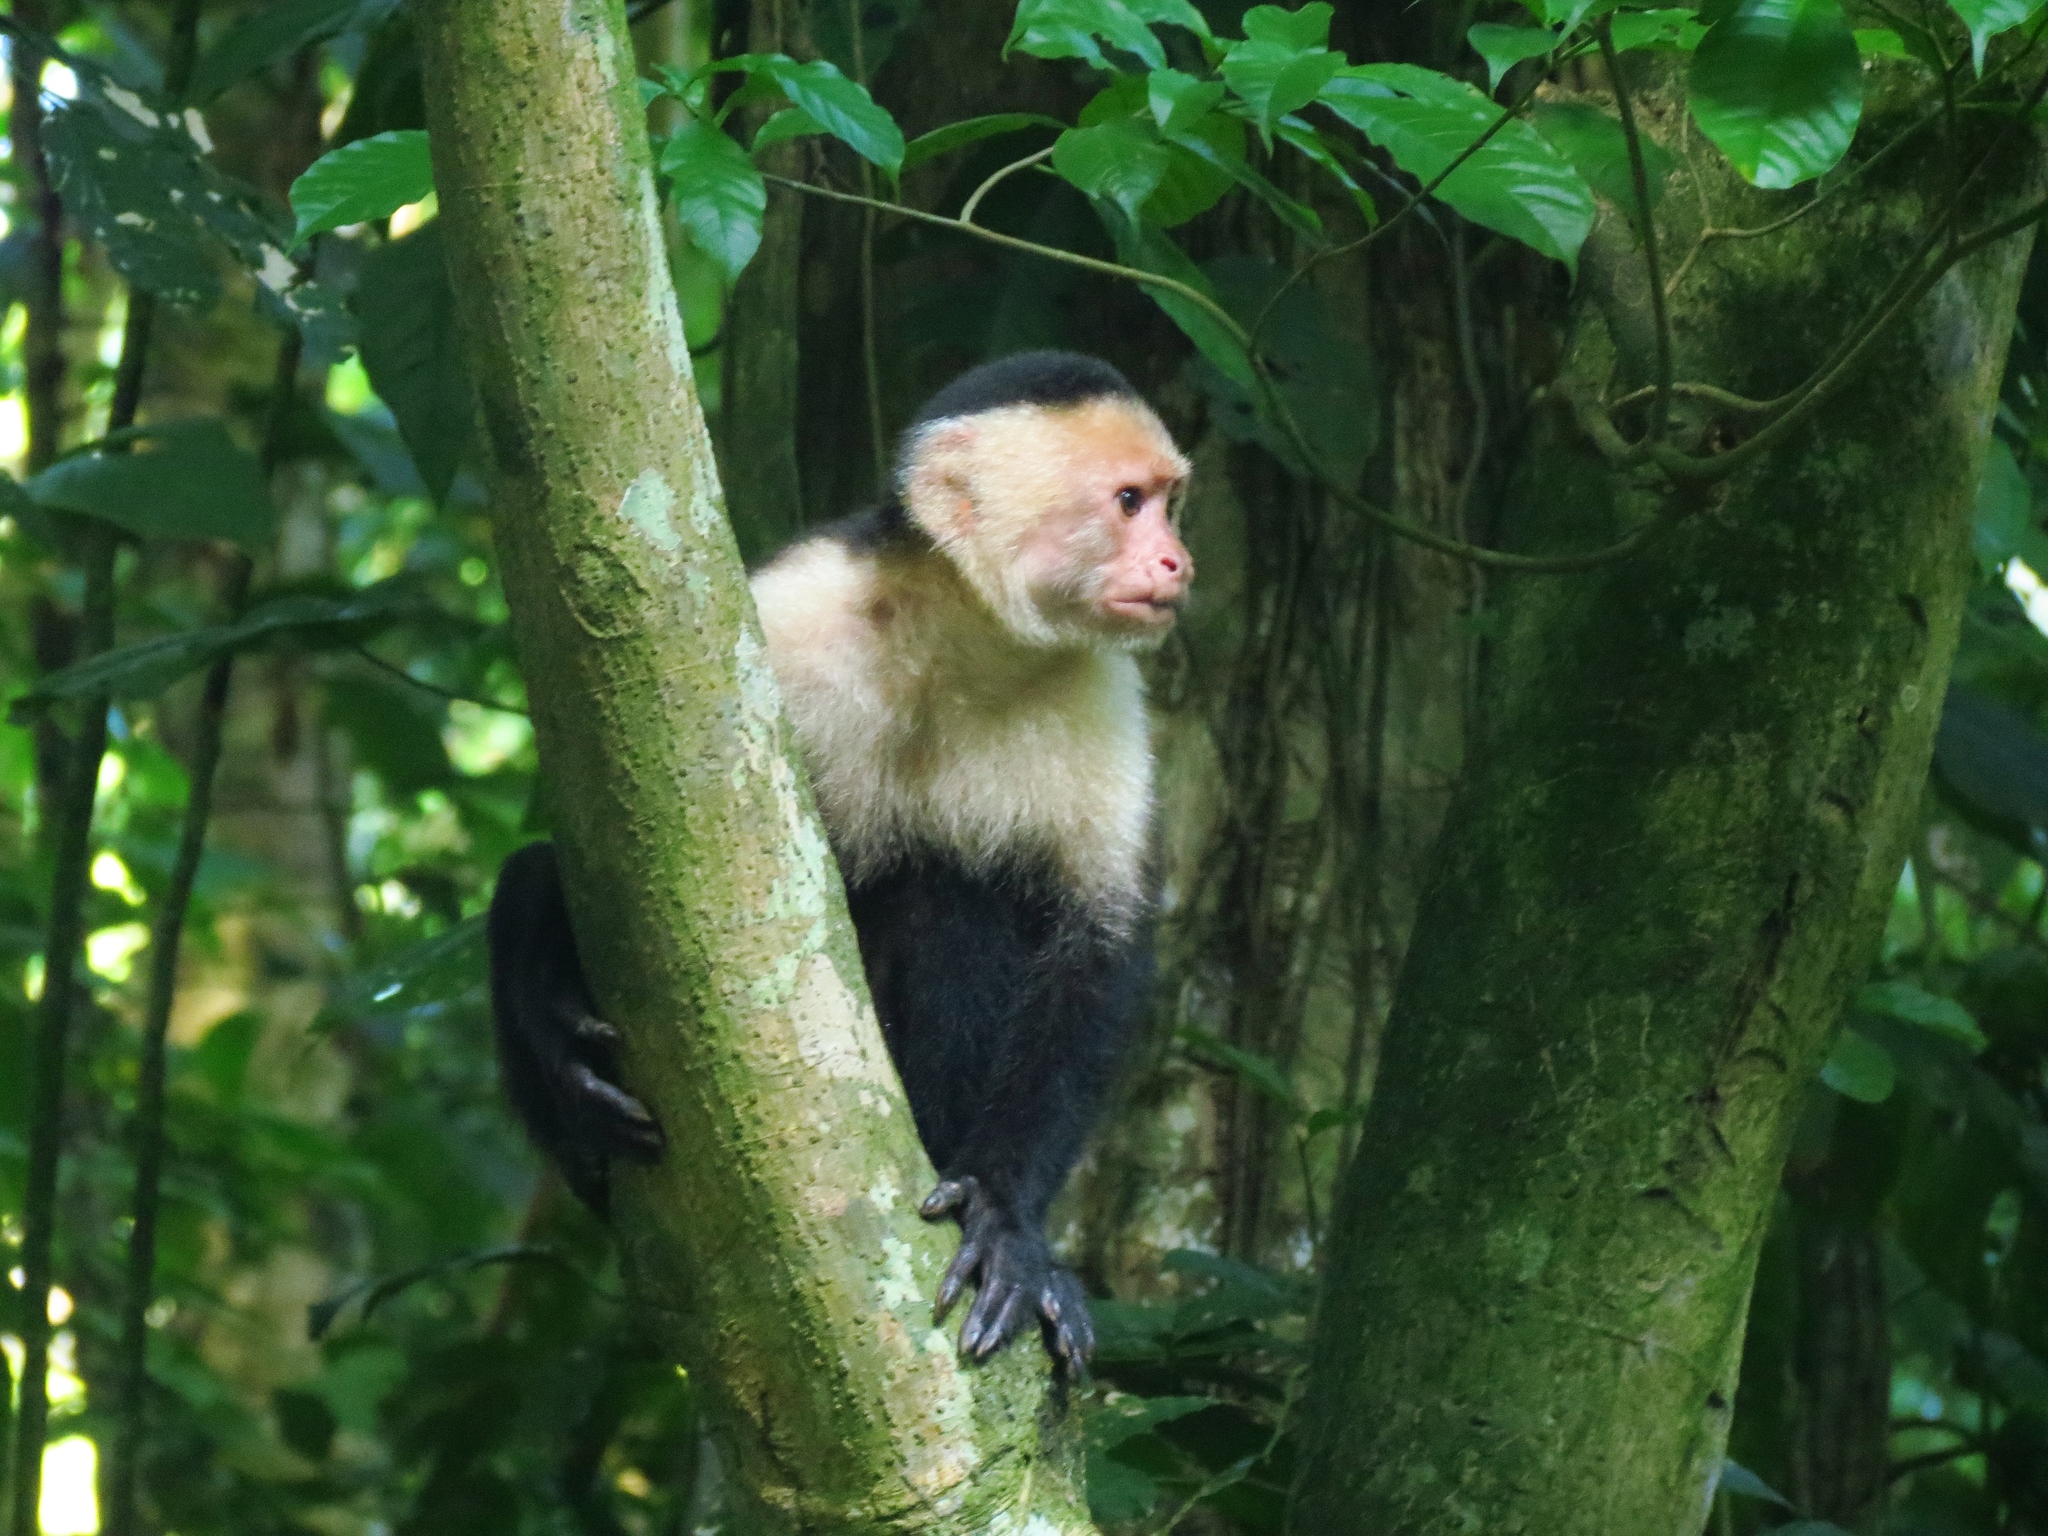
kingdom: Animalia
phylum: Chordata
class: Mammalia
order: Primates
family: Cebidae
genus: Cebus
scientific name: Cebus imitator
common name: Panamanian white-faced capuchin
